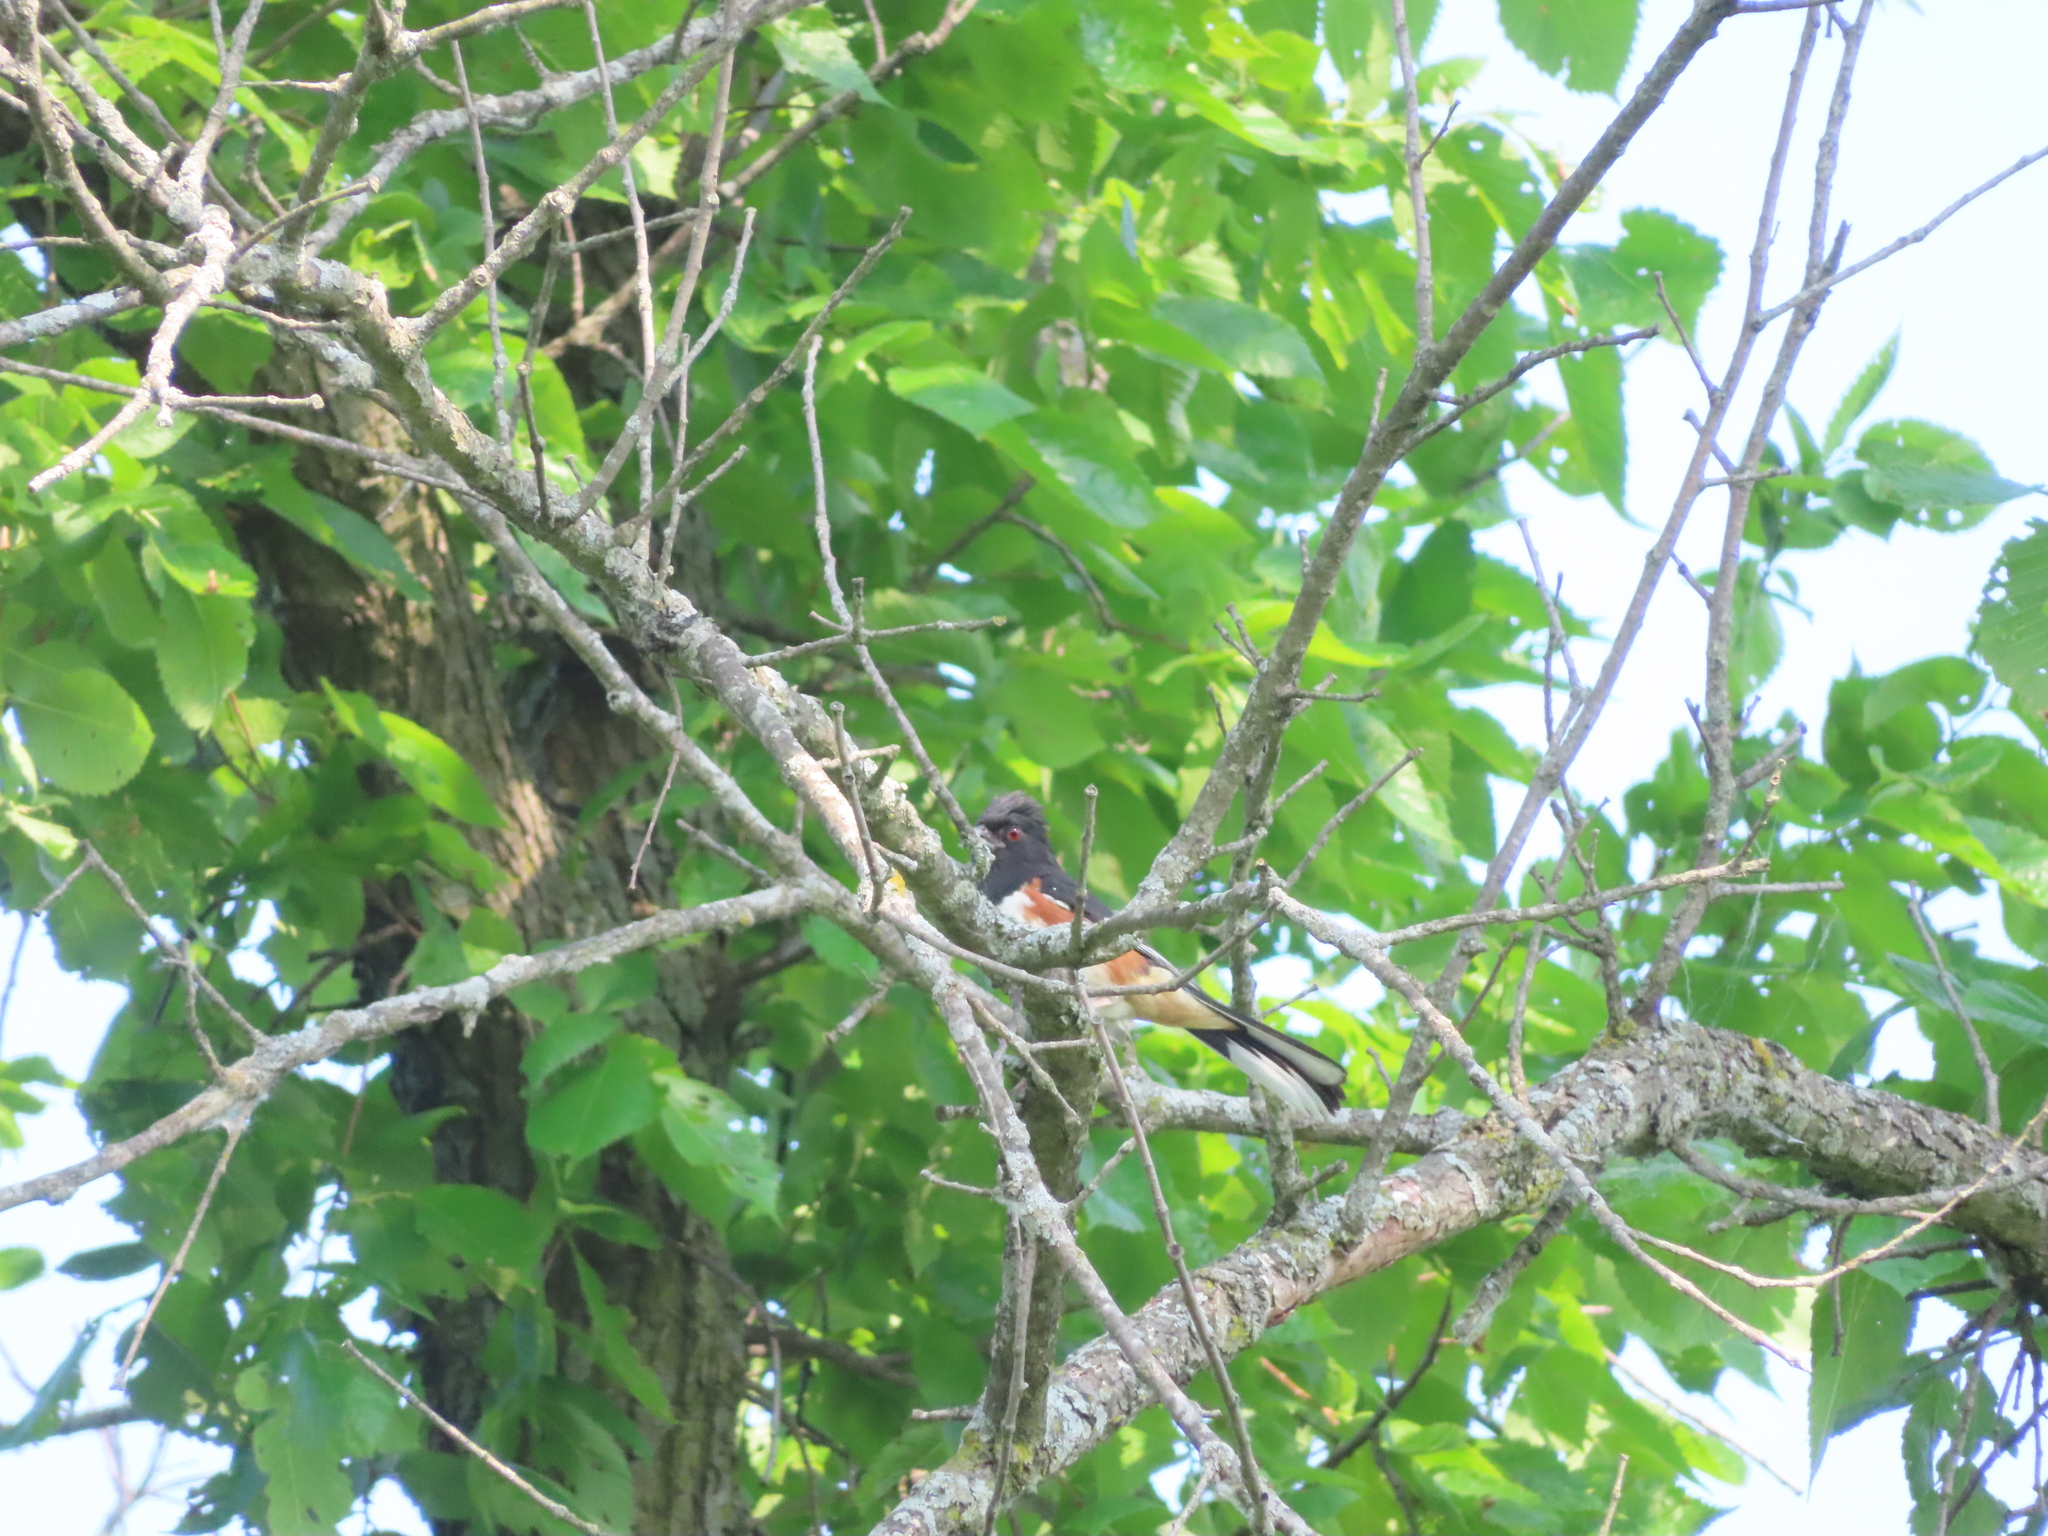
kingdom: Animalia
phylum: Chordata
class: Aves
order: Passeriformes
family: Passerellidae
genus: Pipilo
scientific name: Pipilo erythrophthalmus
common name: Eastern towhee
